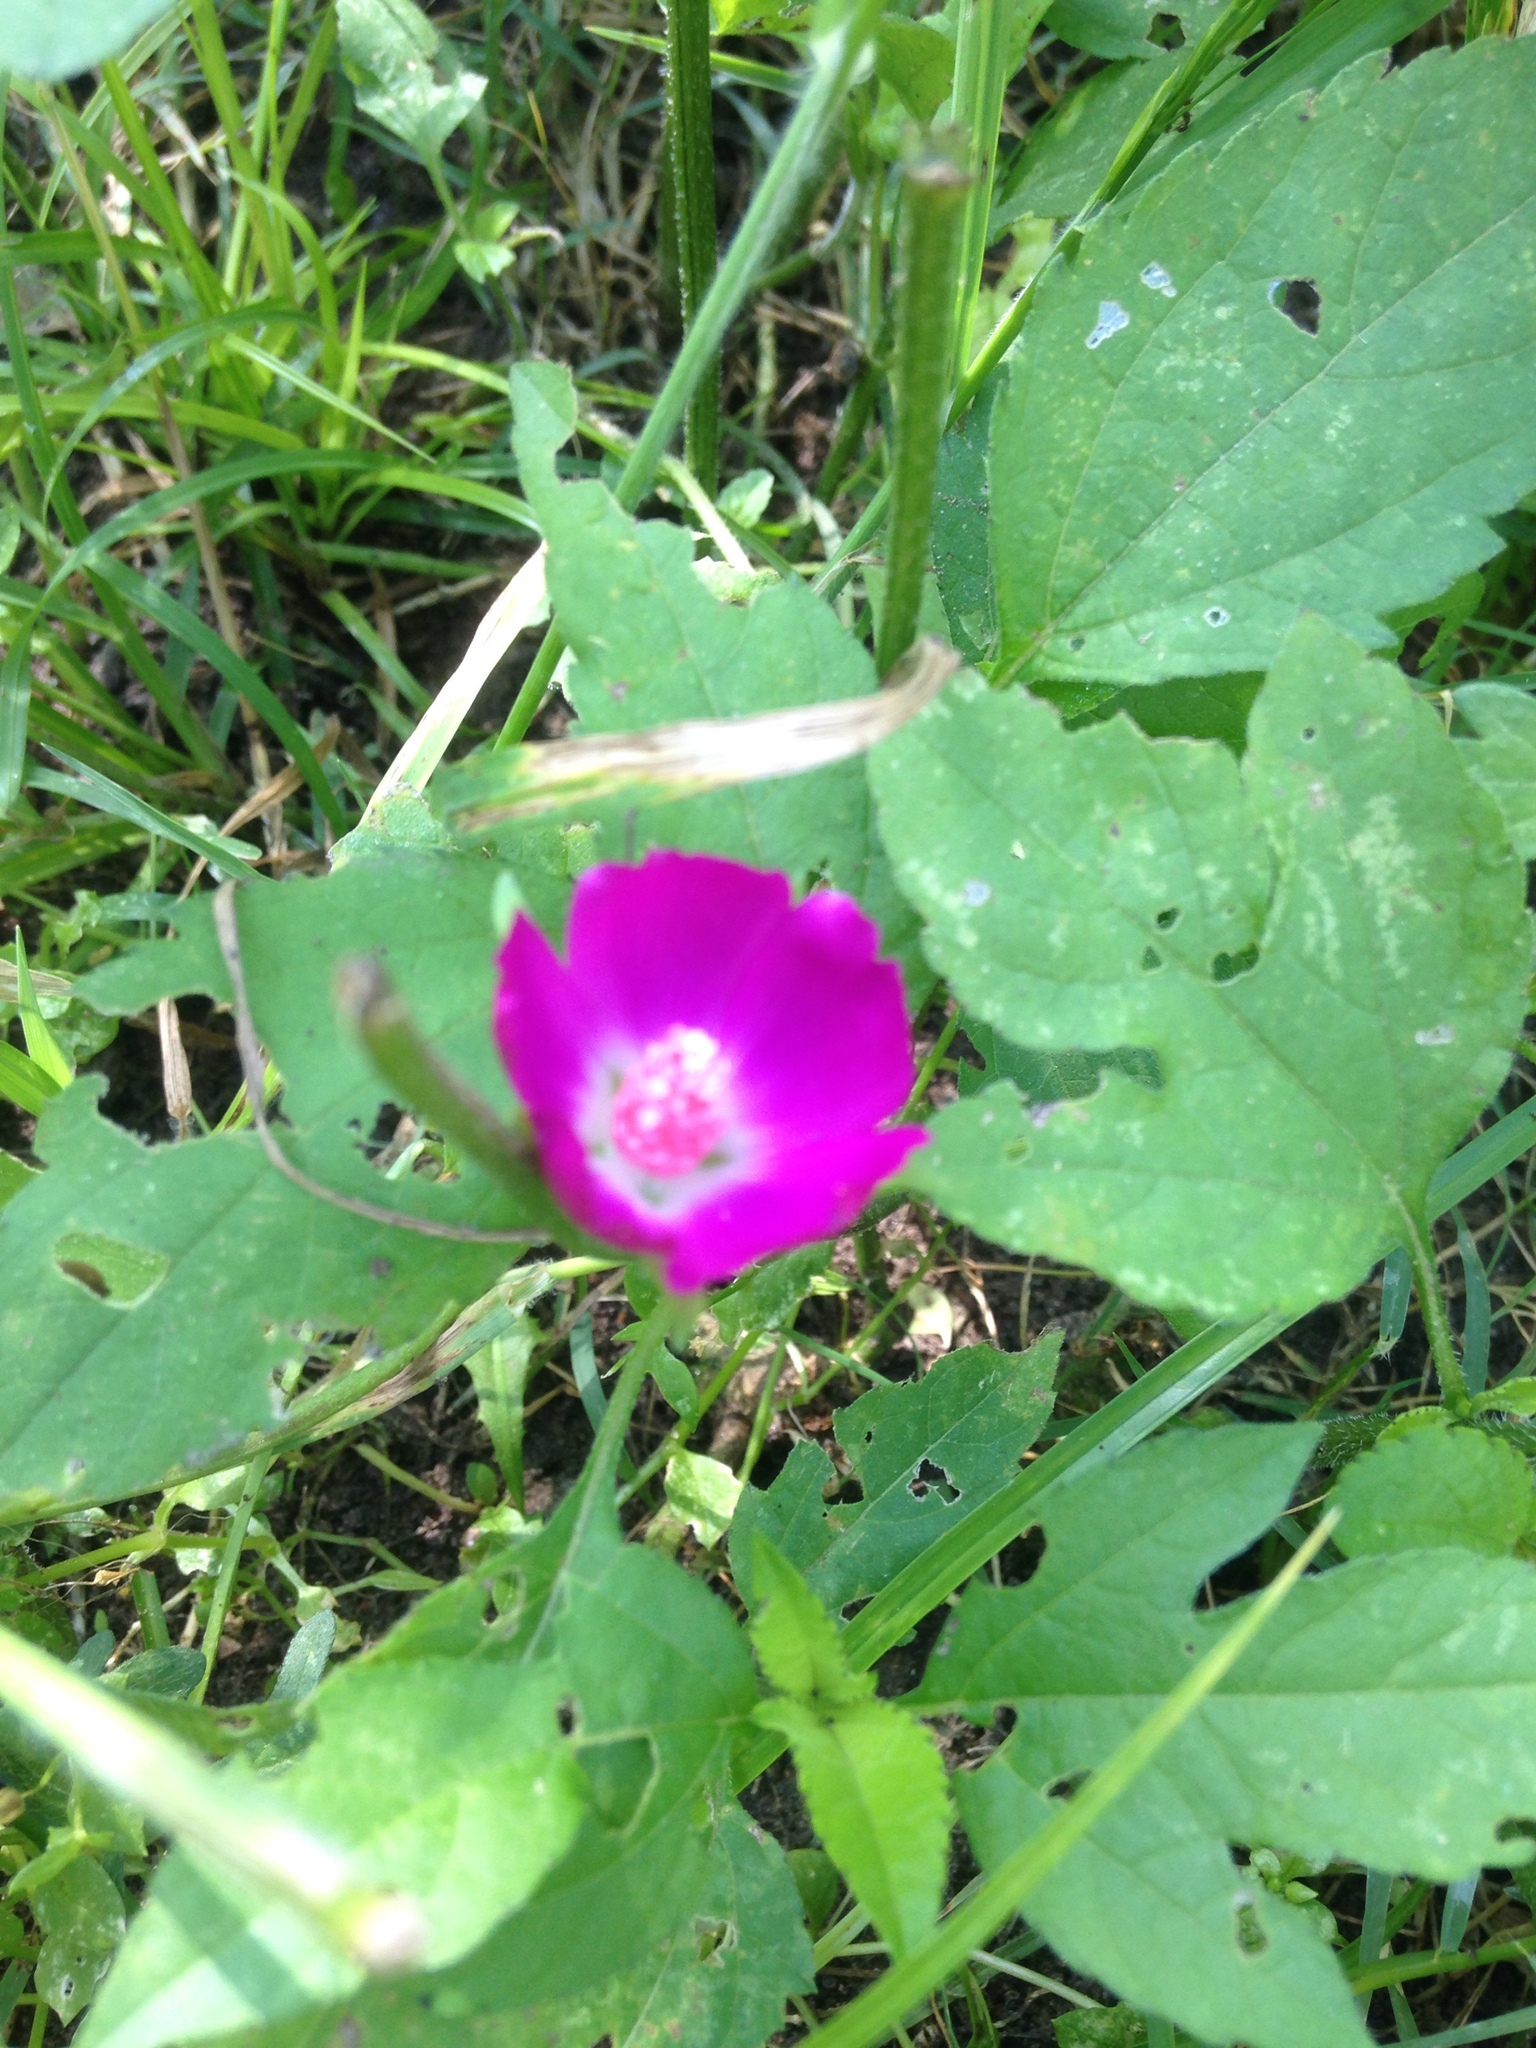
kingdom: Plantae
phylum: Tracheophyta
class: Magnoliopsida
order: Malvales
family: Malvaceae
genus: Callirhoe
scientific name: Callirhoe involucrata
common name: Purple poppy-mallow
